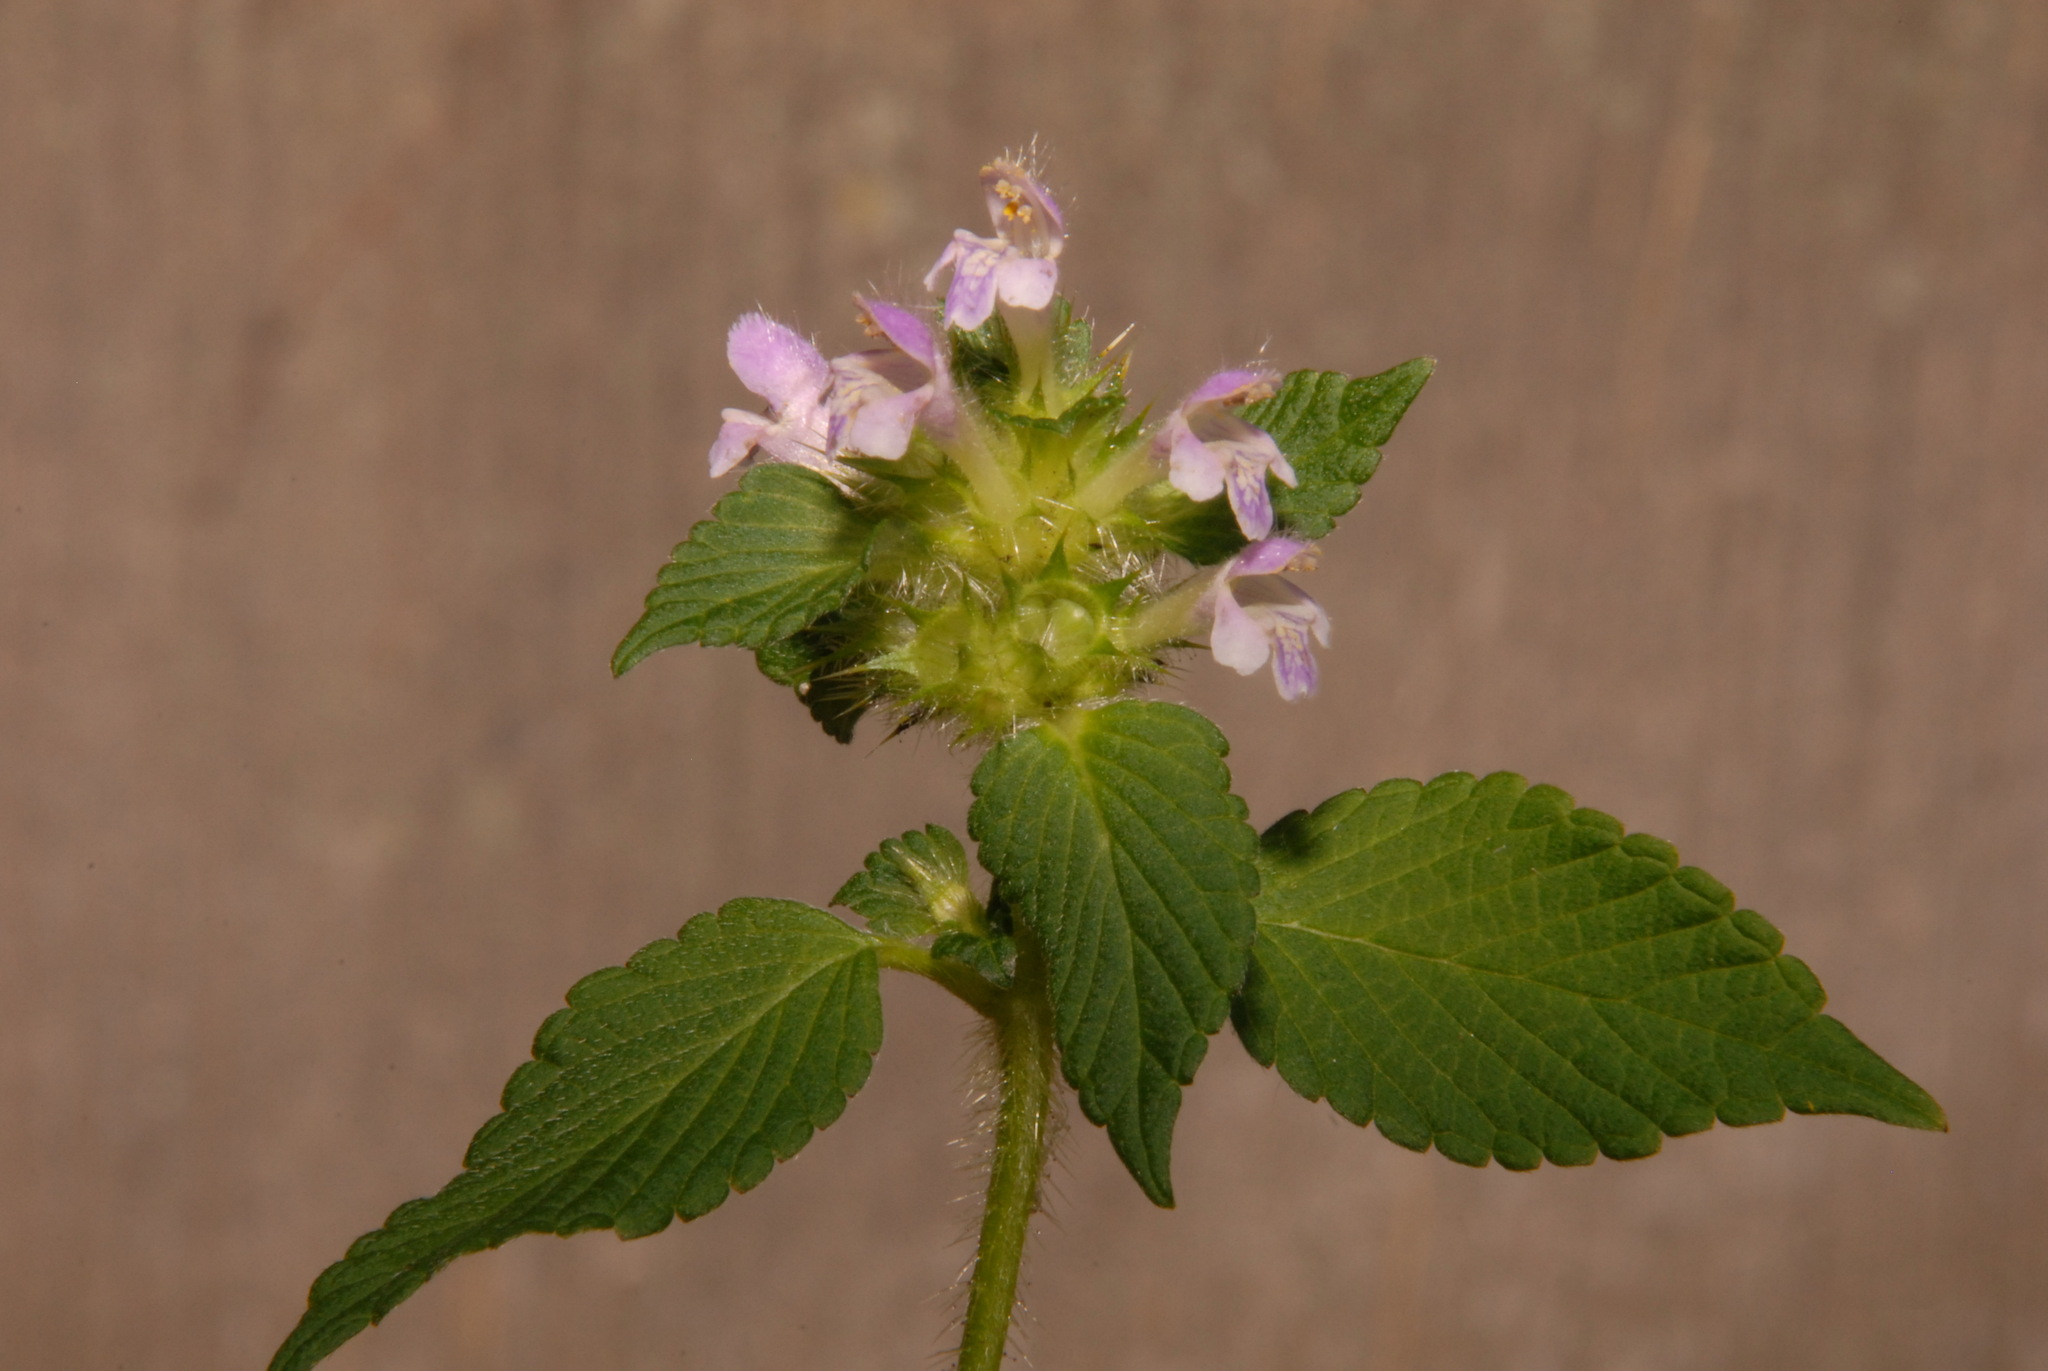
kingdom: Plantae
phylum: Tracheophyta
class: Magnoliopsida
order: Lamiales
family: Lamiaceae
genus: Galeopsis
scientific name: Galeopsis bifida
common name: Bifid hemp-nettle
